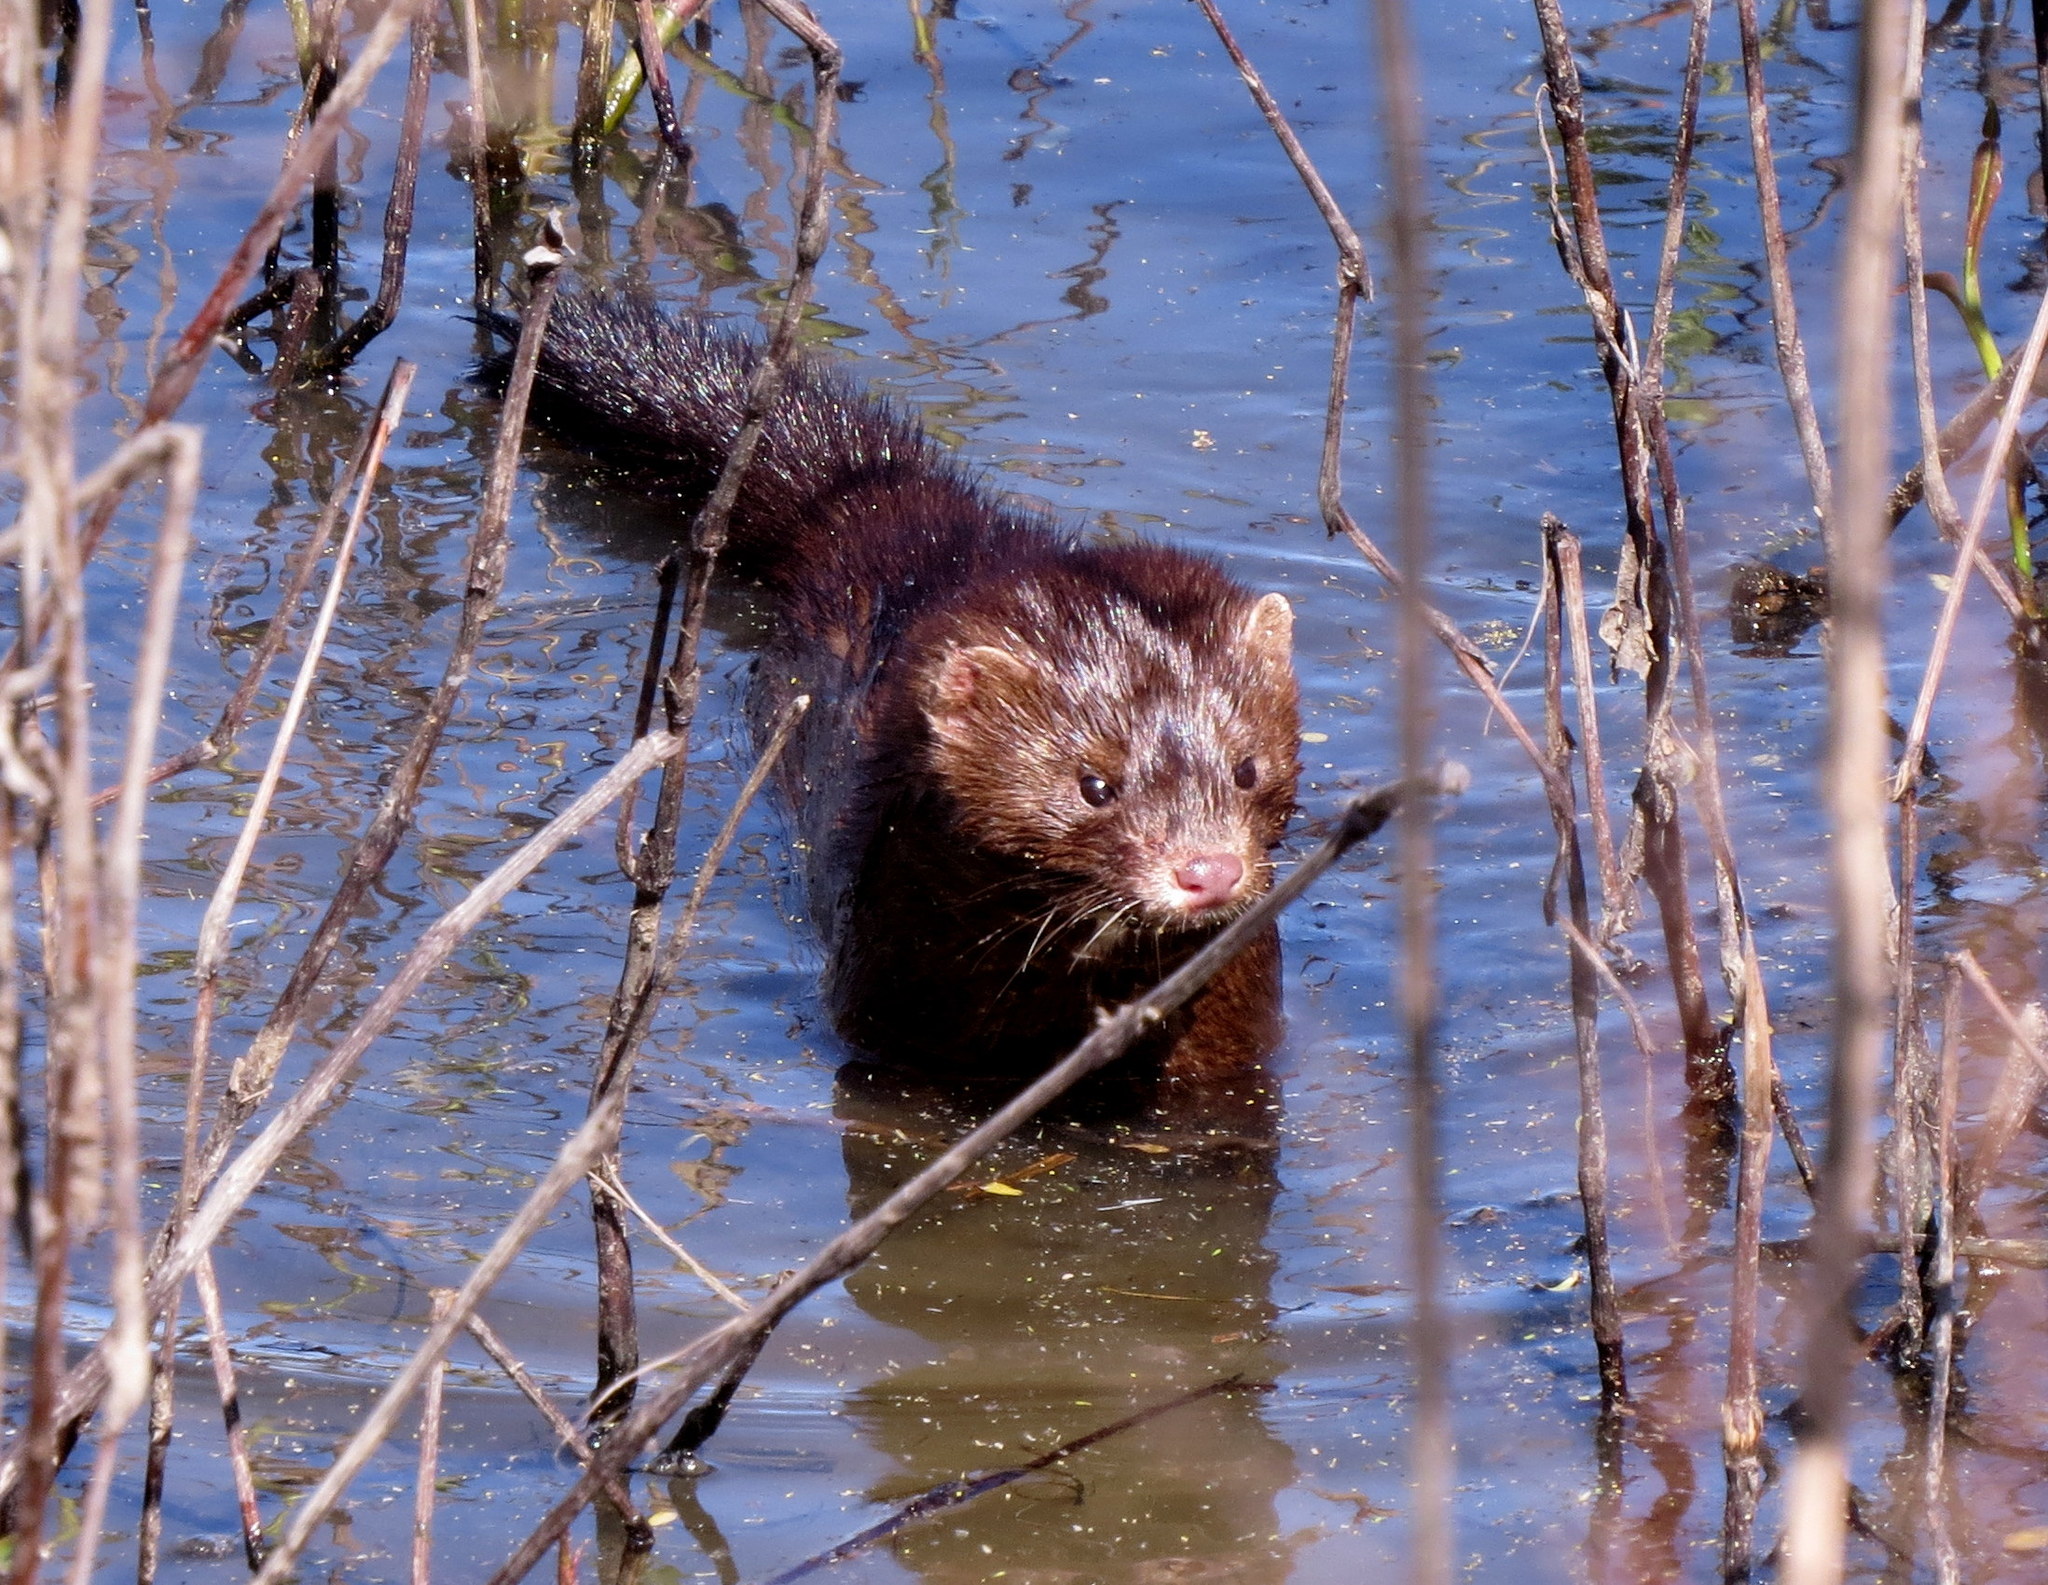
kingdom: Animalia
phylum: Chordata
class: Mammalia
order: Carnivora
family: Mustelidae
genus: Mustela
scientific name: Mustela
